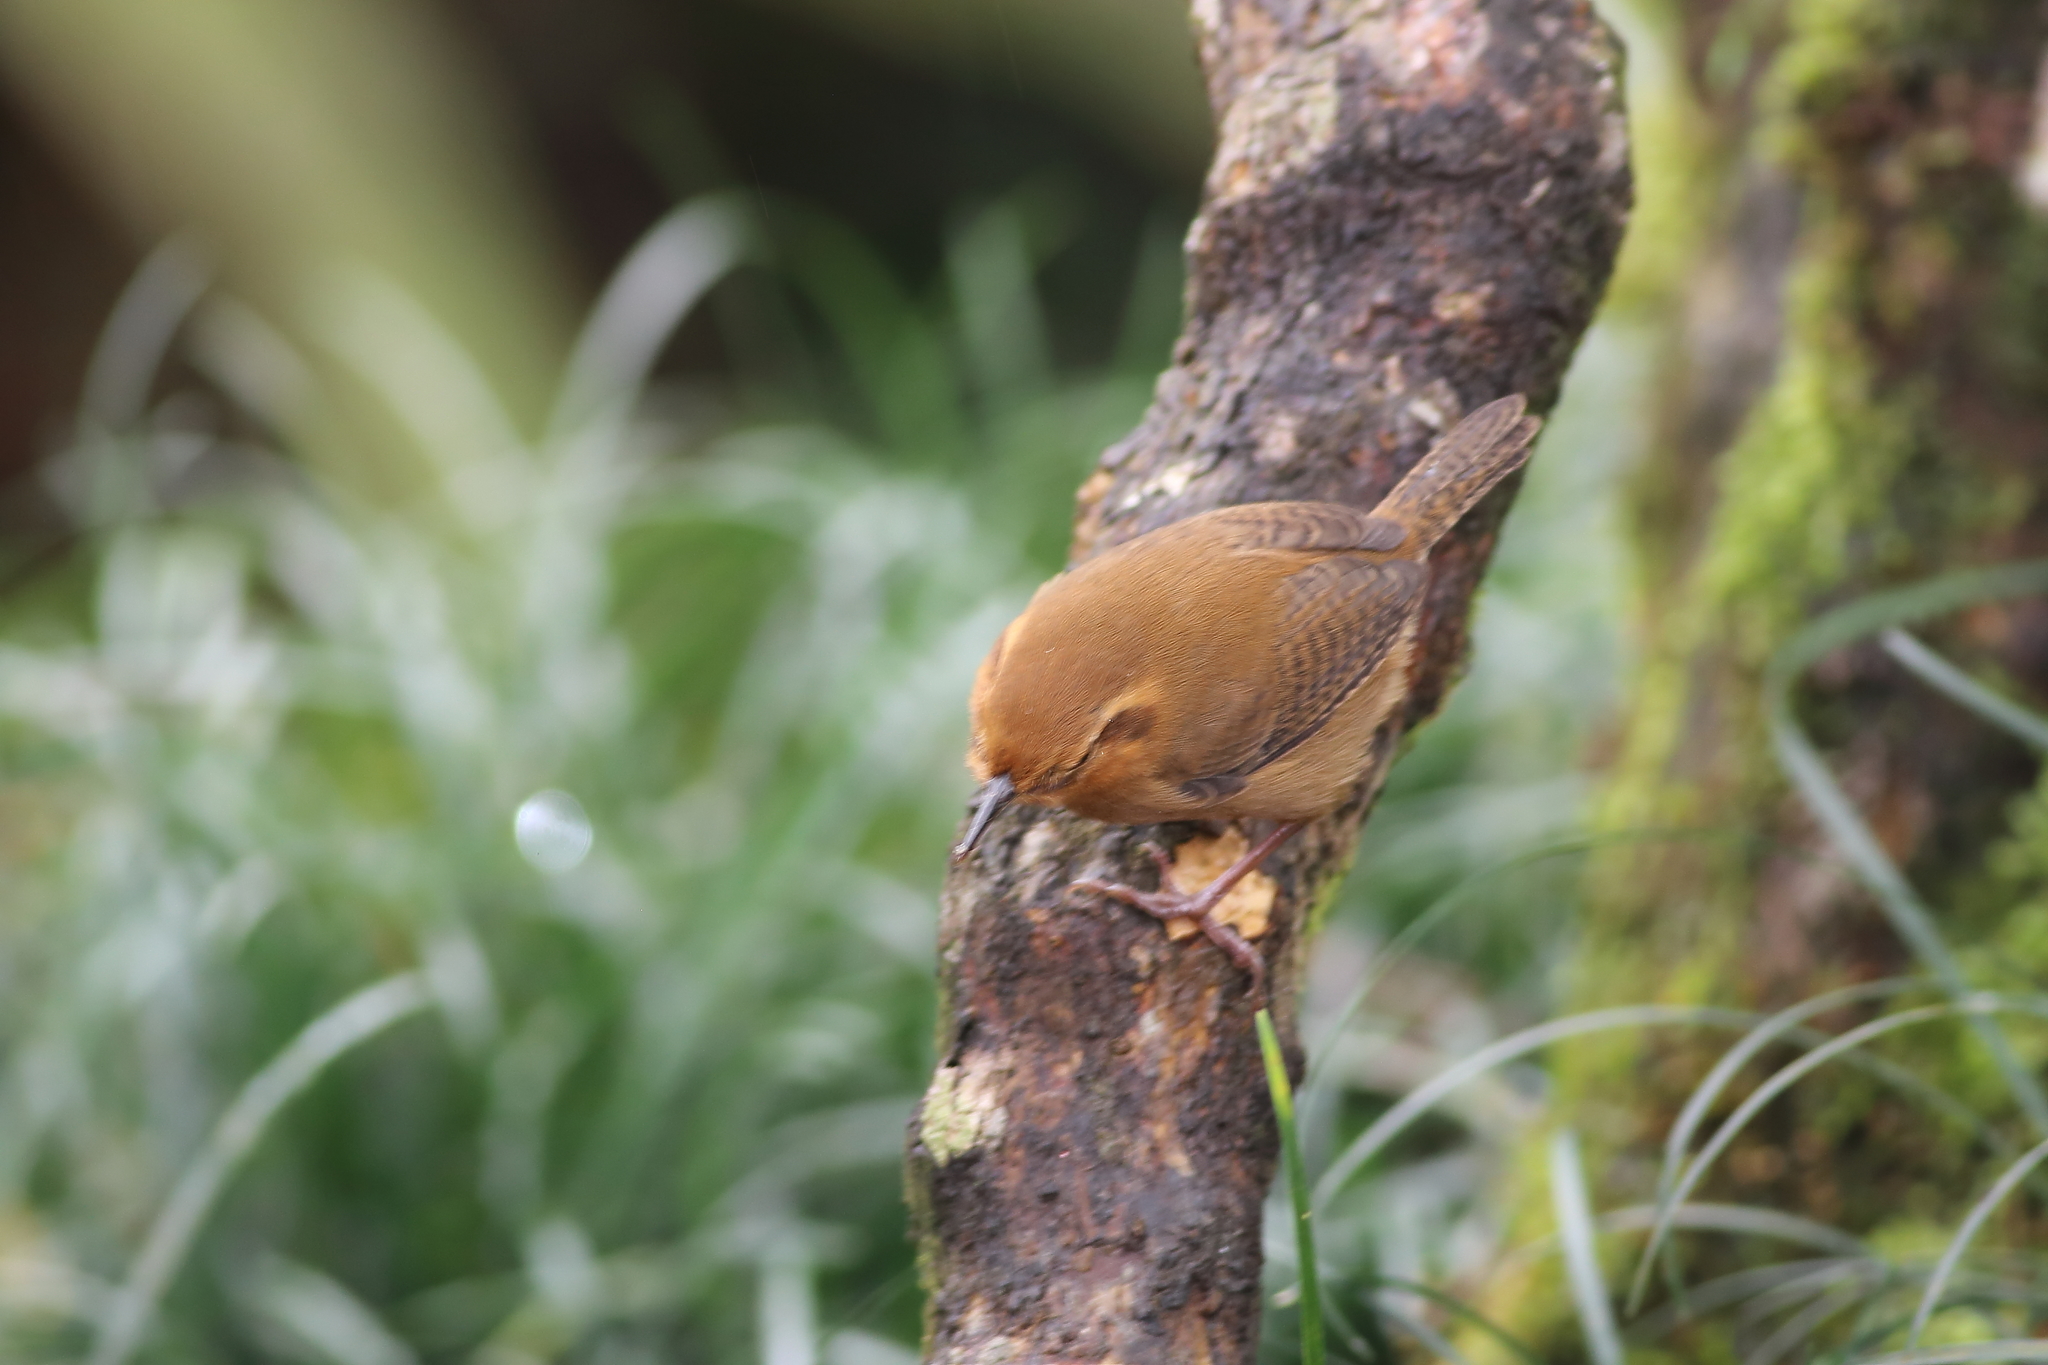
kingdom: Animalia
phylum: Chordata
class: Aves
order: Passeriformes
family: Troglodytidae
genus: Troglodytes
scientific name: Troglodytes ochraceus
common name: Ochraceous wren
